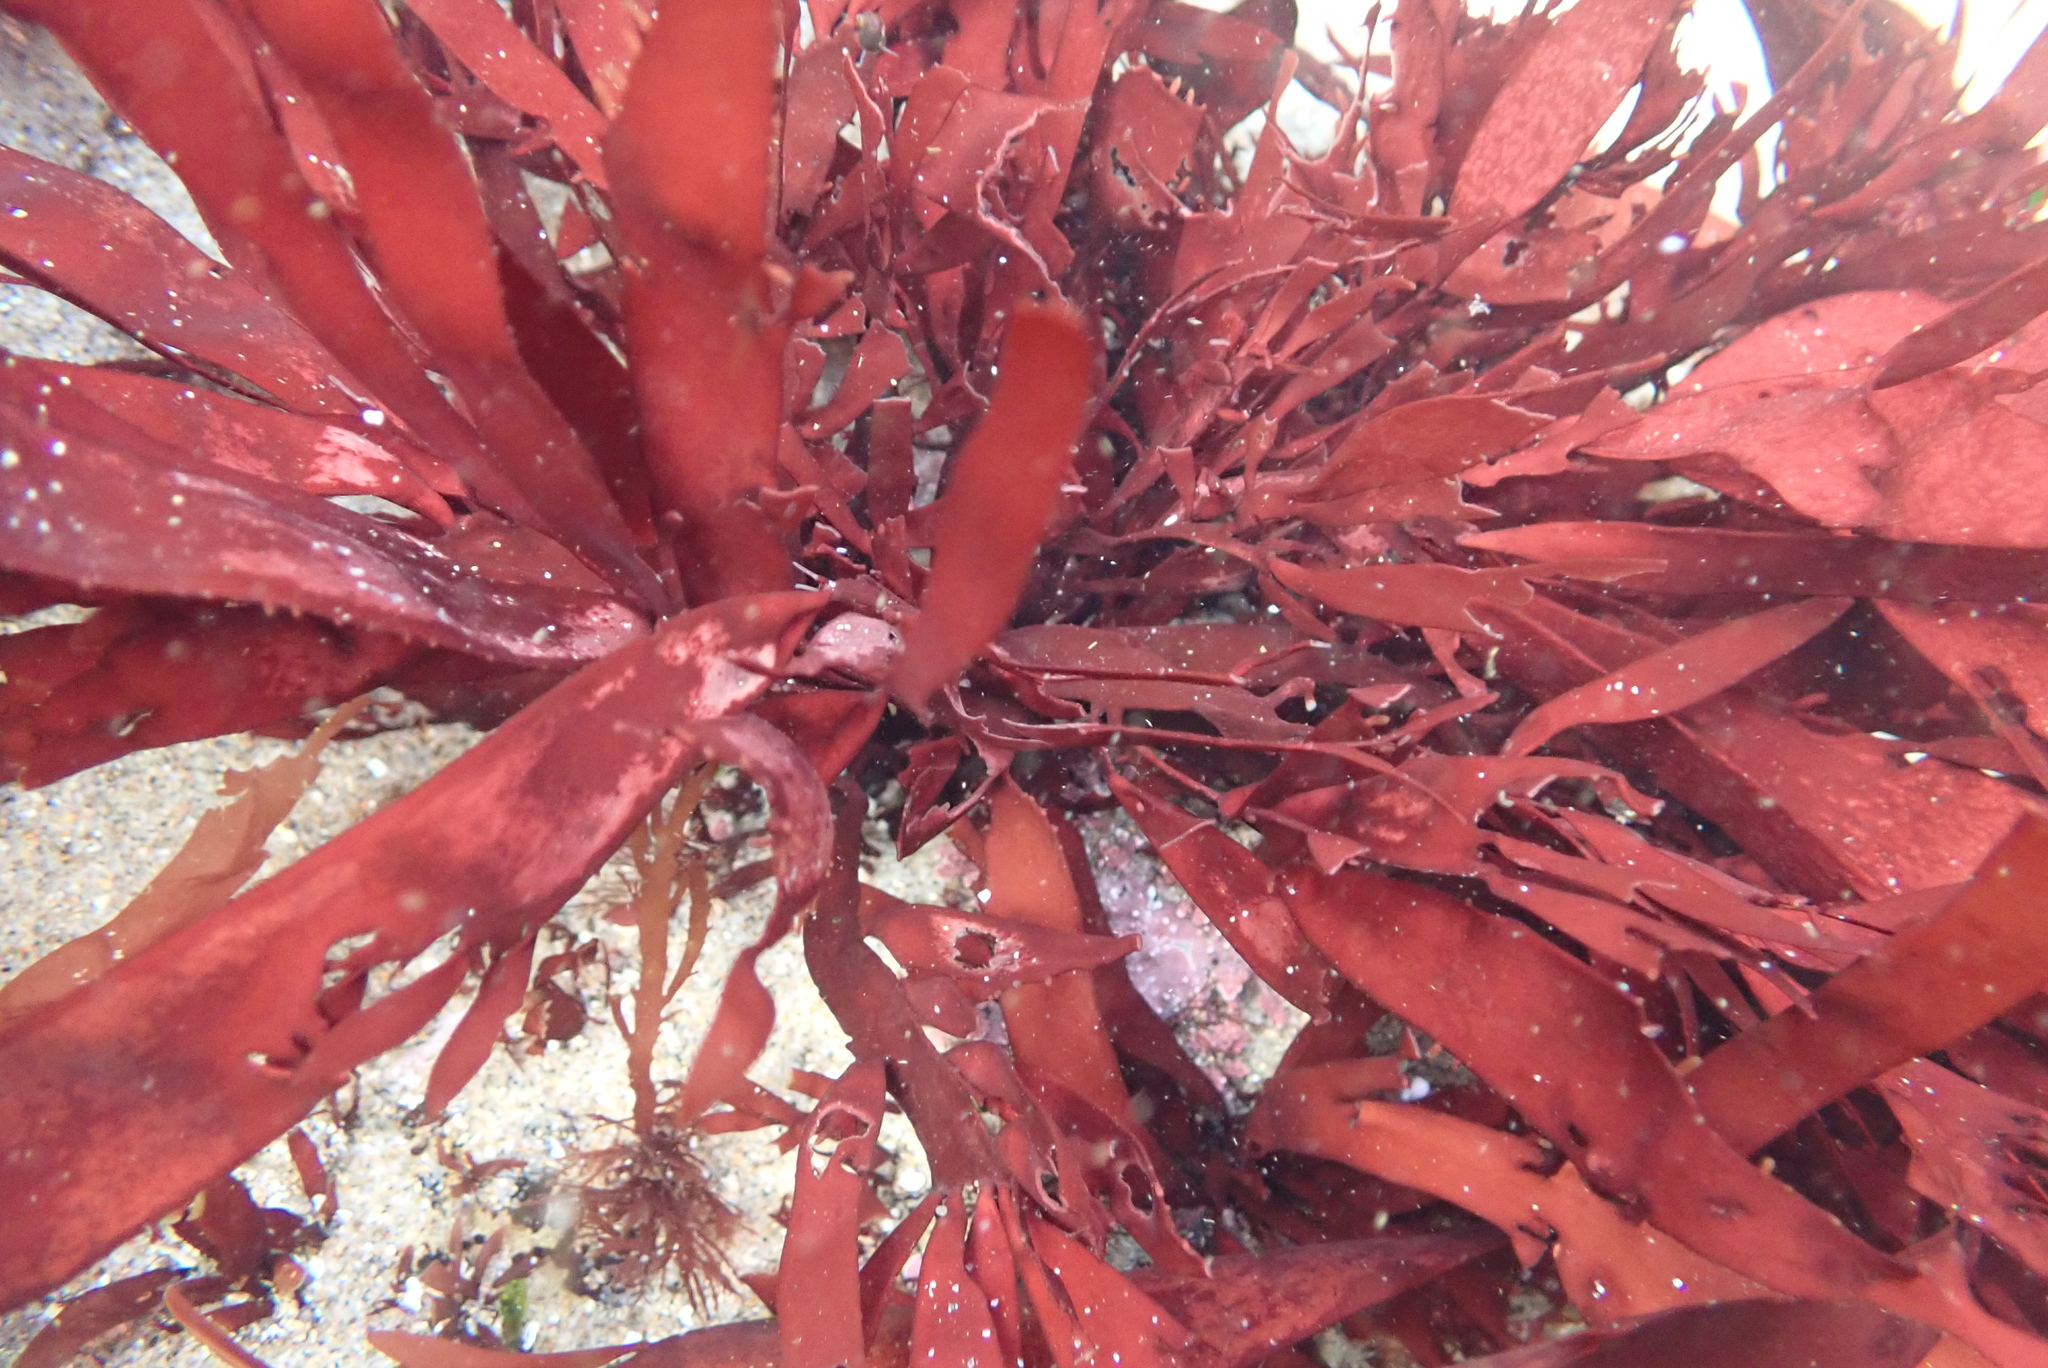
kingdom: Plantae
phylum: Rhodophyta
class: Florideophyceae
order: Halymeniales
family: Halymeniaceae
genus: Grateloupia
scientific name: Grateloupia Prionitis sternbergii
